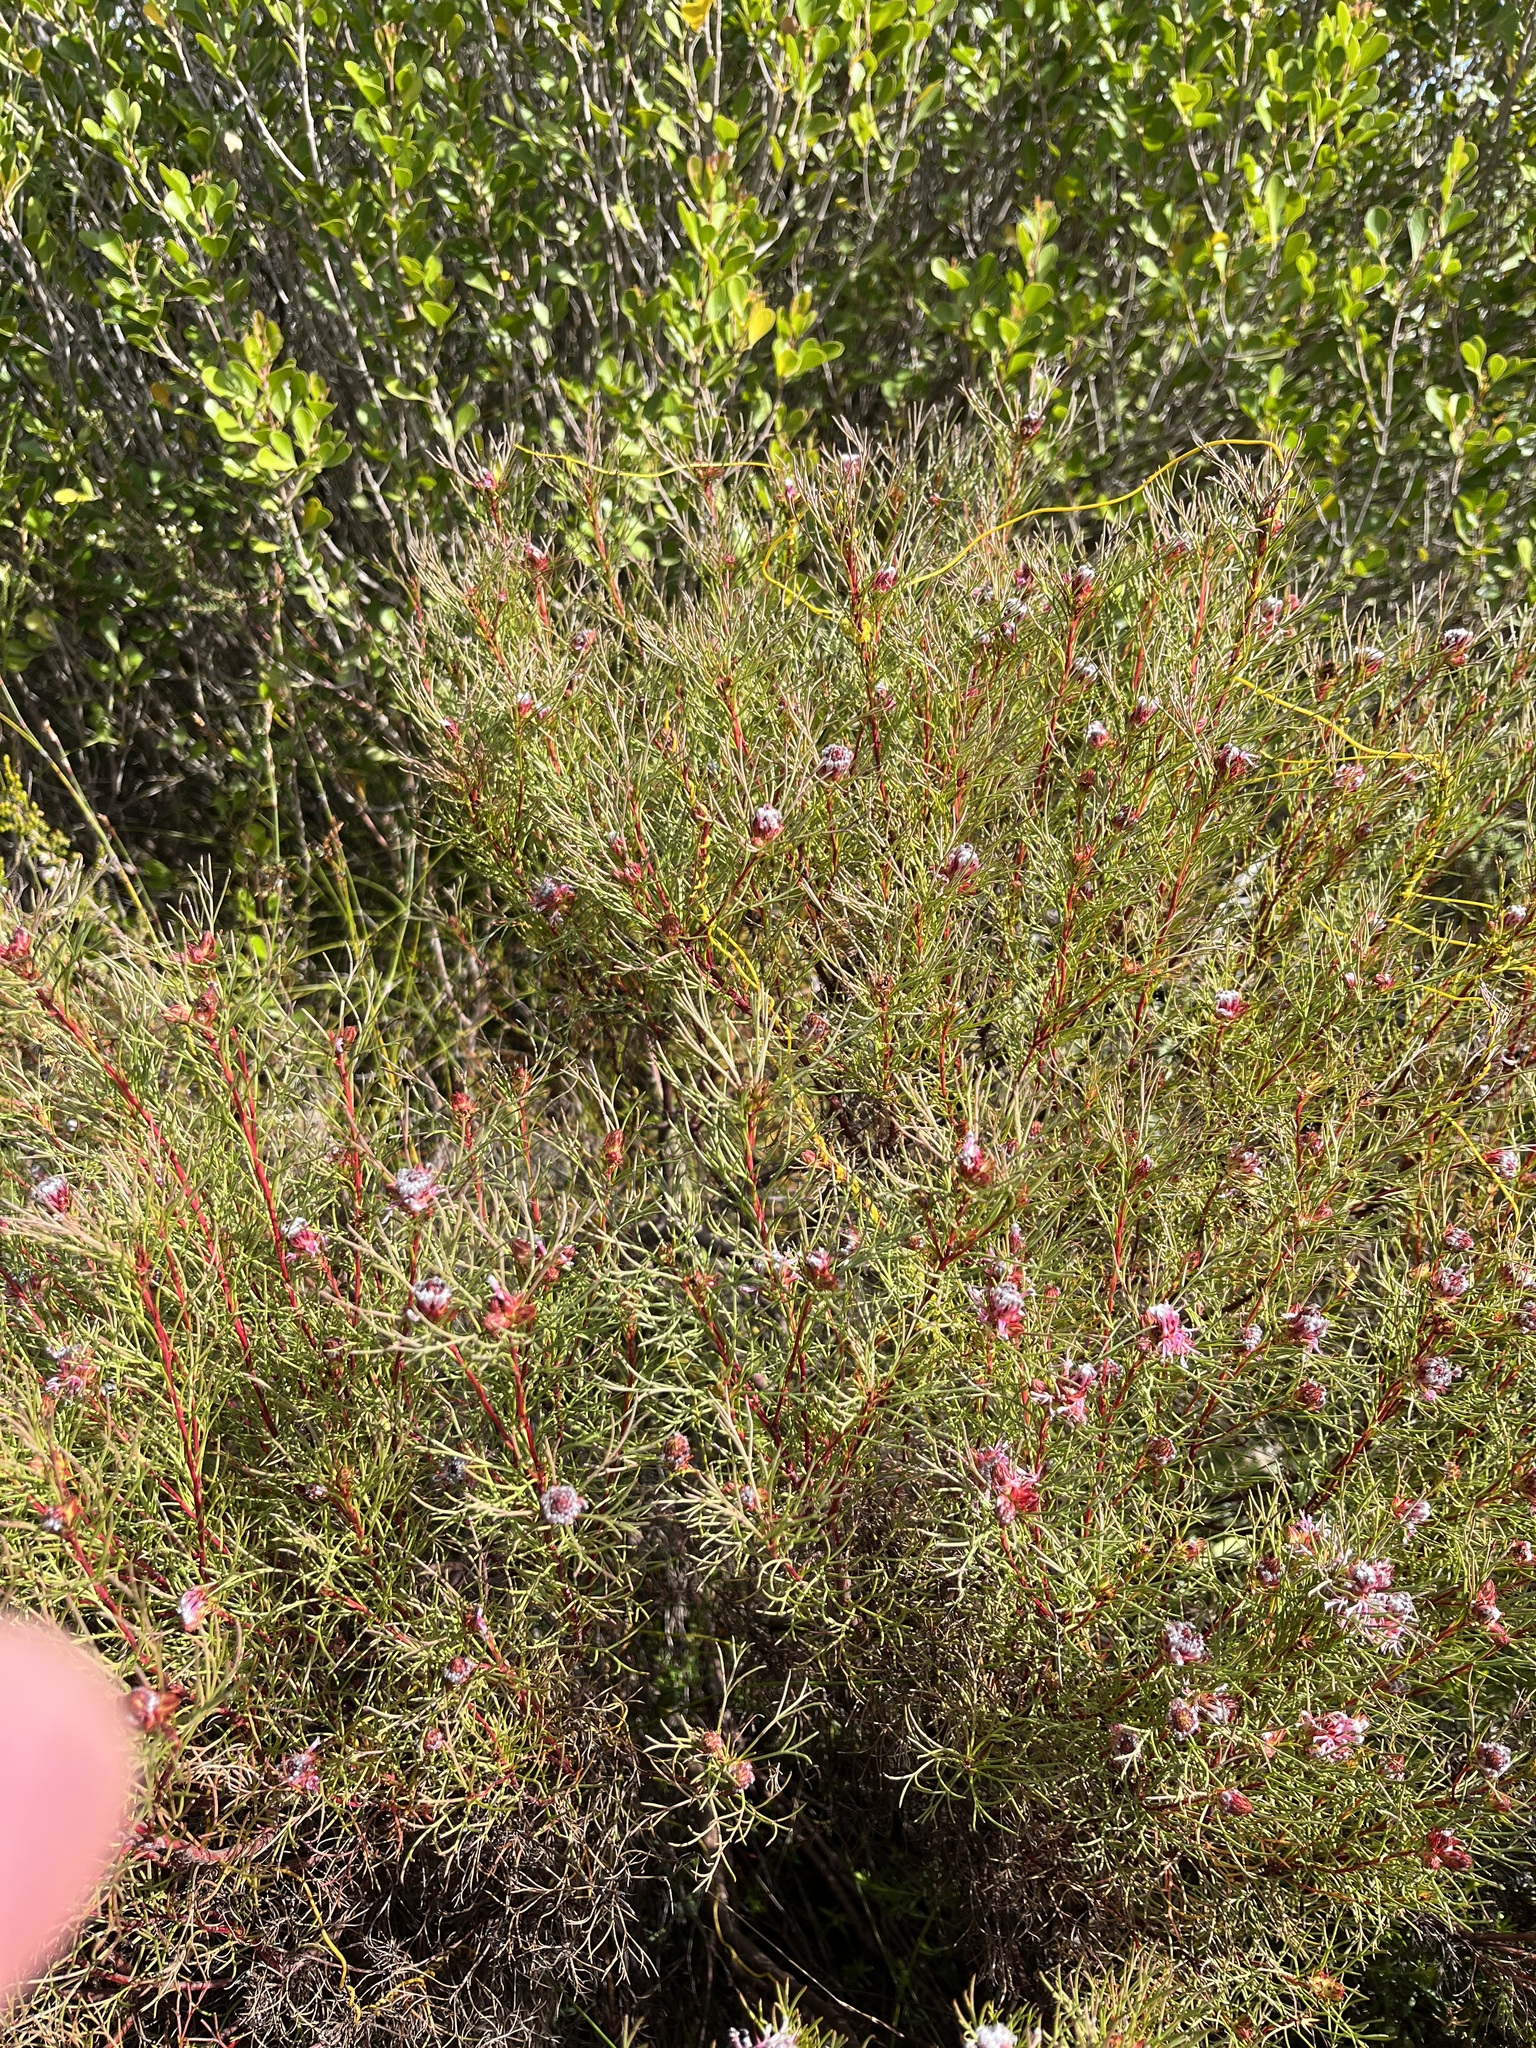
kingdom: Plantae
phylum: Tracheophyta
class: Magnoliopsida
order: Proteales
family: Proteaceae
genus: Serruria
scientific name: Serruria nervosa
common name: Fluted spiderhead
